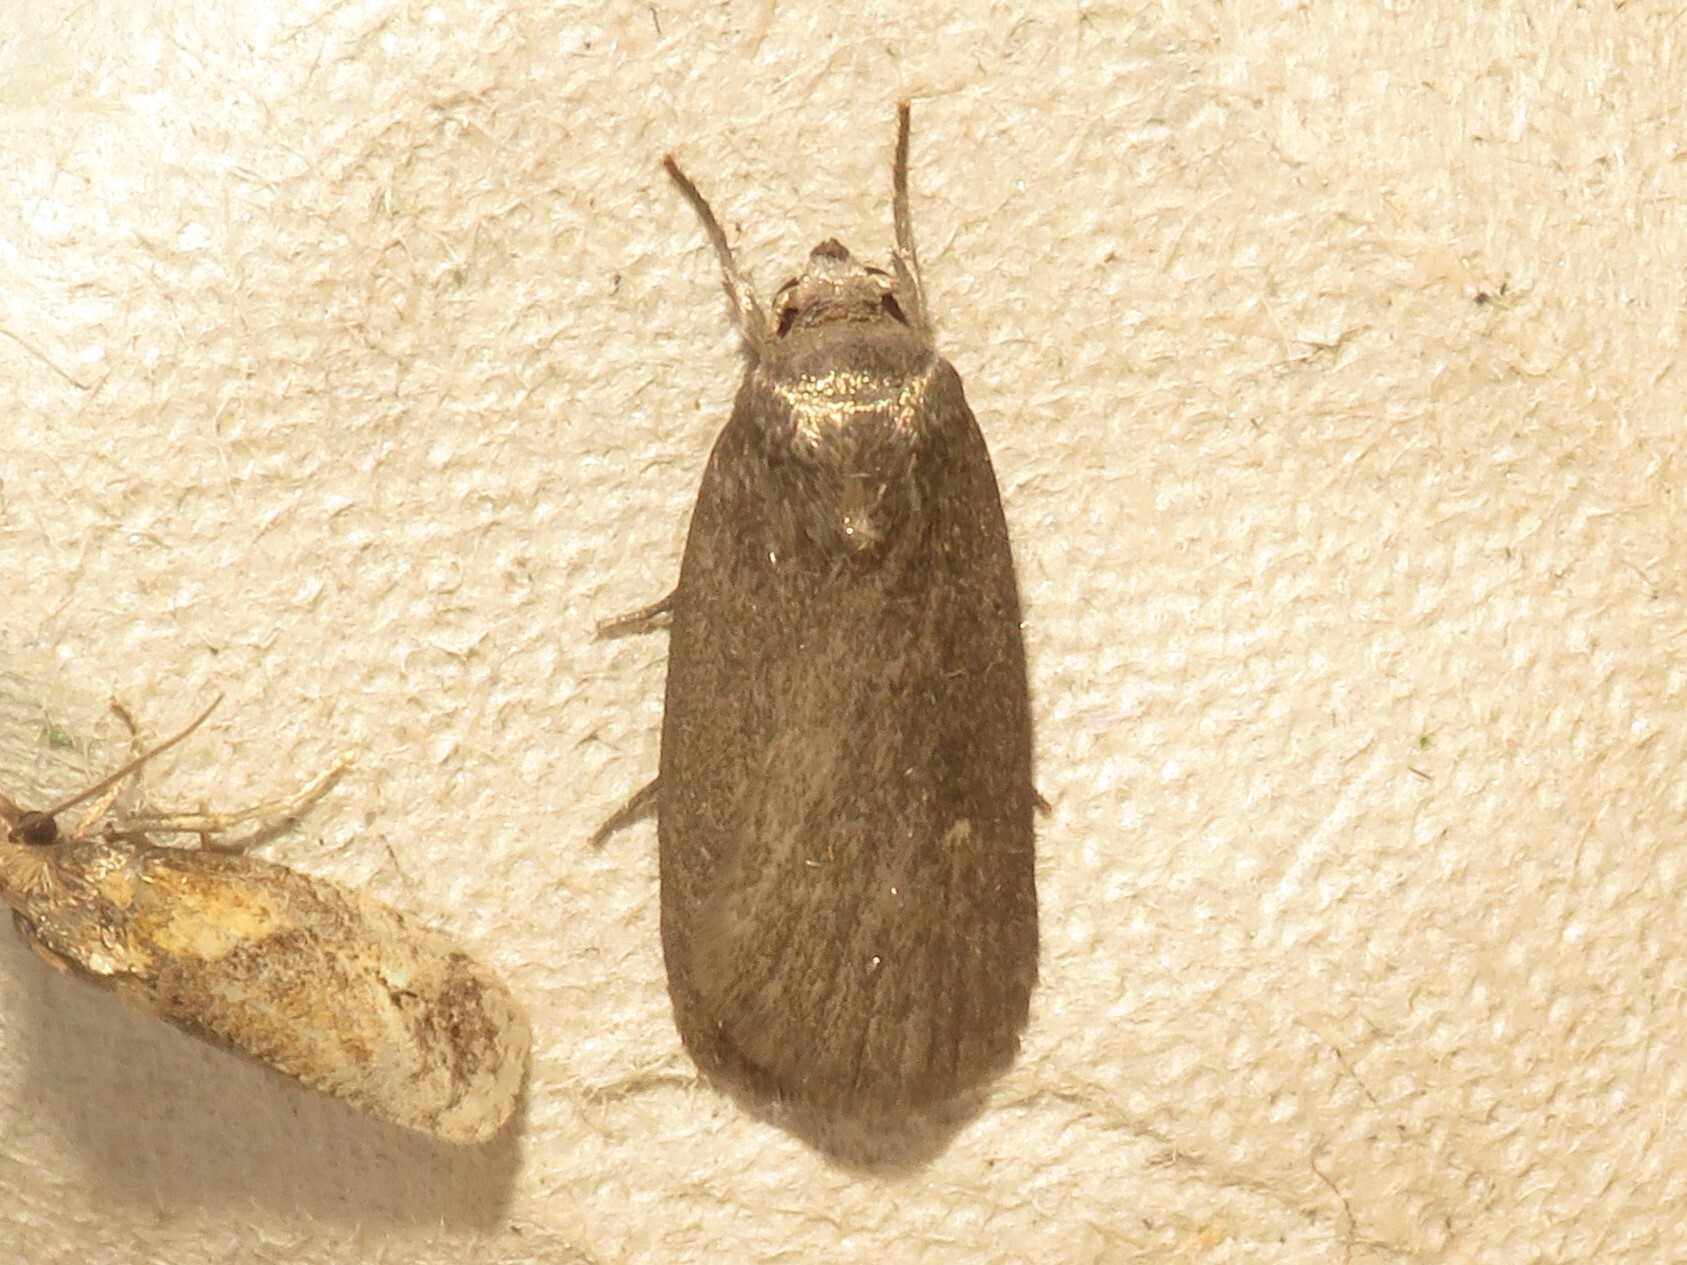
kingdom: Animalia
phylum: Arthropoda
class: Insecta
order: Lepidoptera
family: Noctuidae
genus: Proxenus
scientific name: Proxenus miranda
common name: Miranda moth
